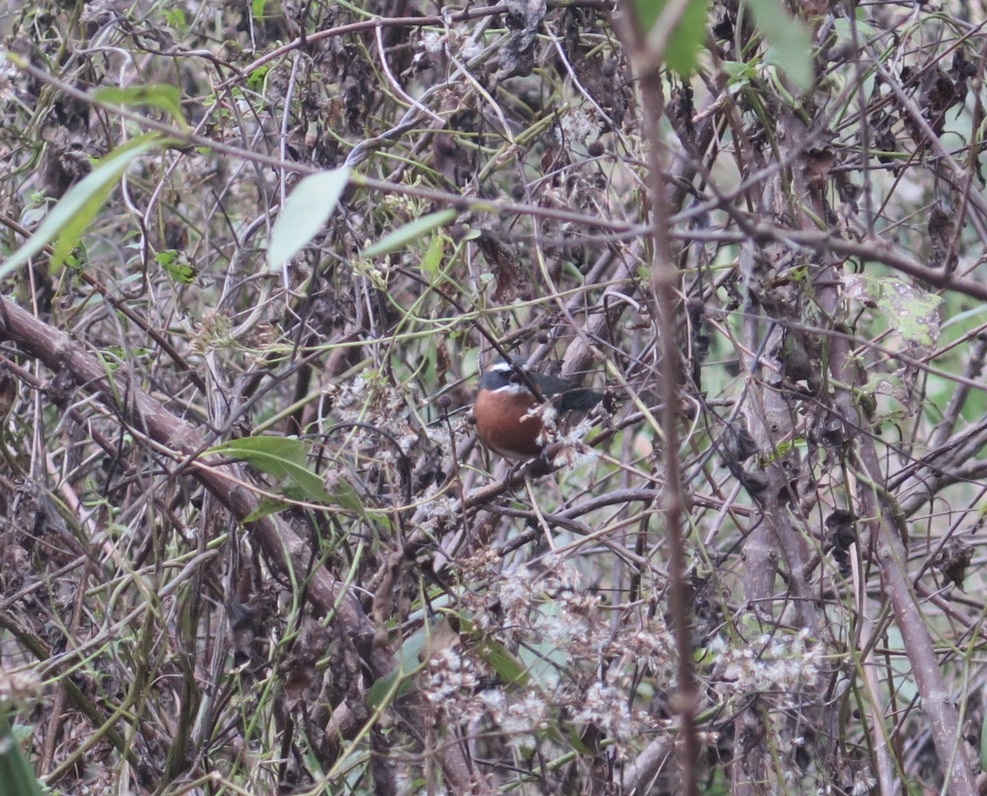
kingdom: Animalia
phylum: Chordata
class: Aves
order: Passeriformes
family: Thraupidae
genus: Poospiza
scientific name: Poospiza nigrorufa
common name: Black-and-rufous warbling finch
